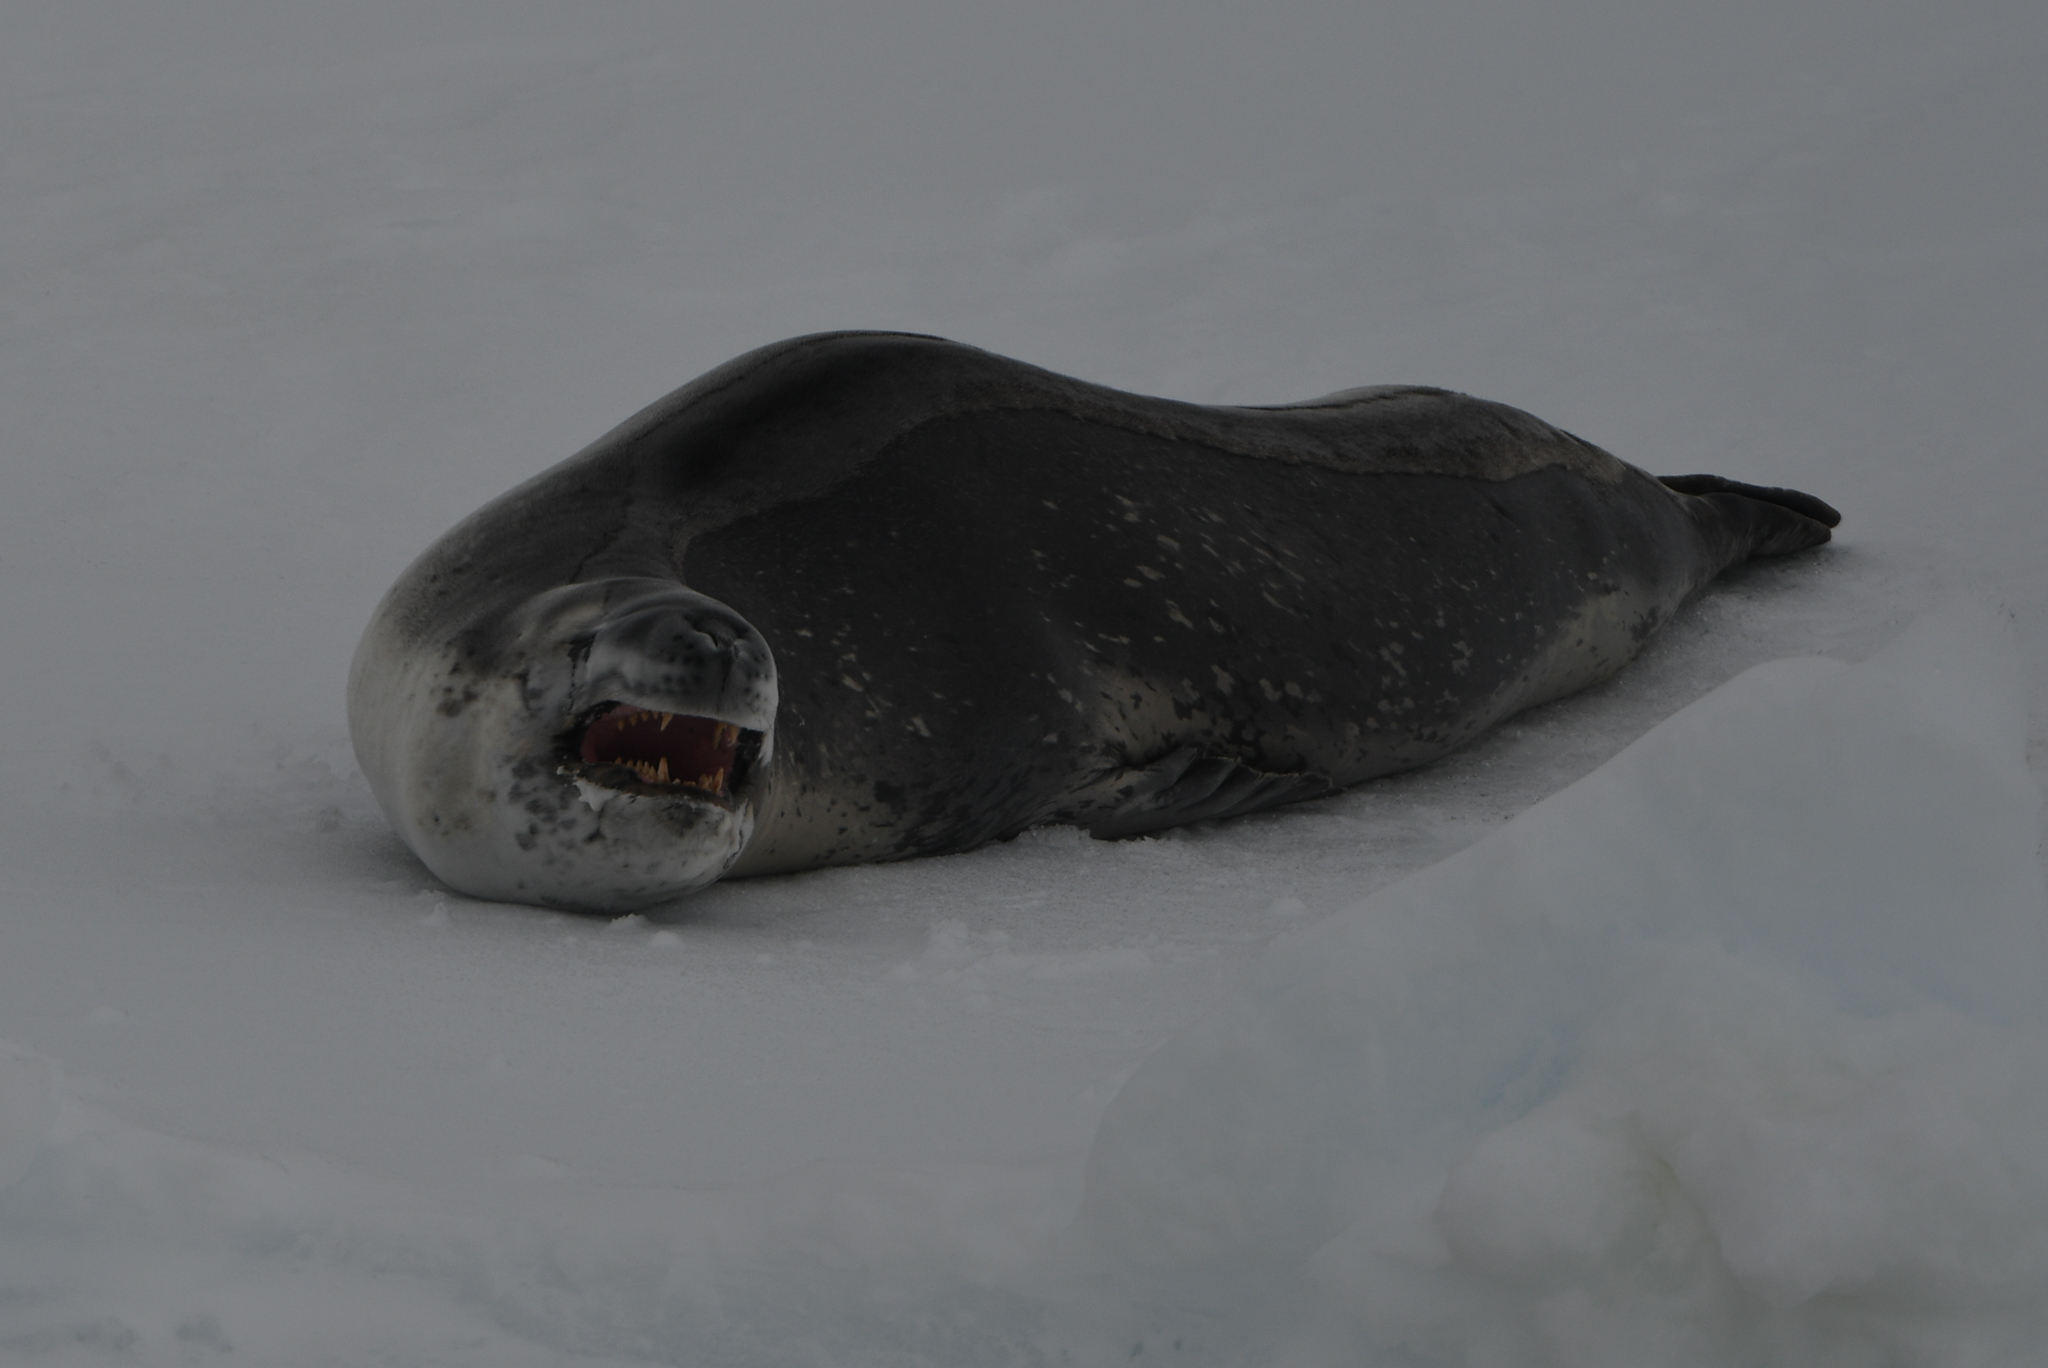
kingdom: Animalia
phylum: Chordata
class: Mammalia
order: Carnivora
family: Phocidae
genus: Hydrurga
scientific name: Hydrurga leptonyx
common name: Leopard seal
